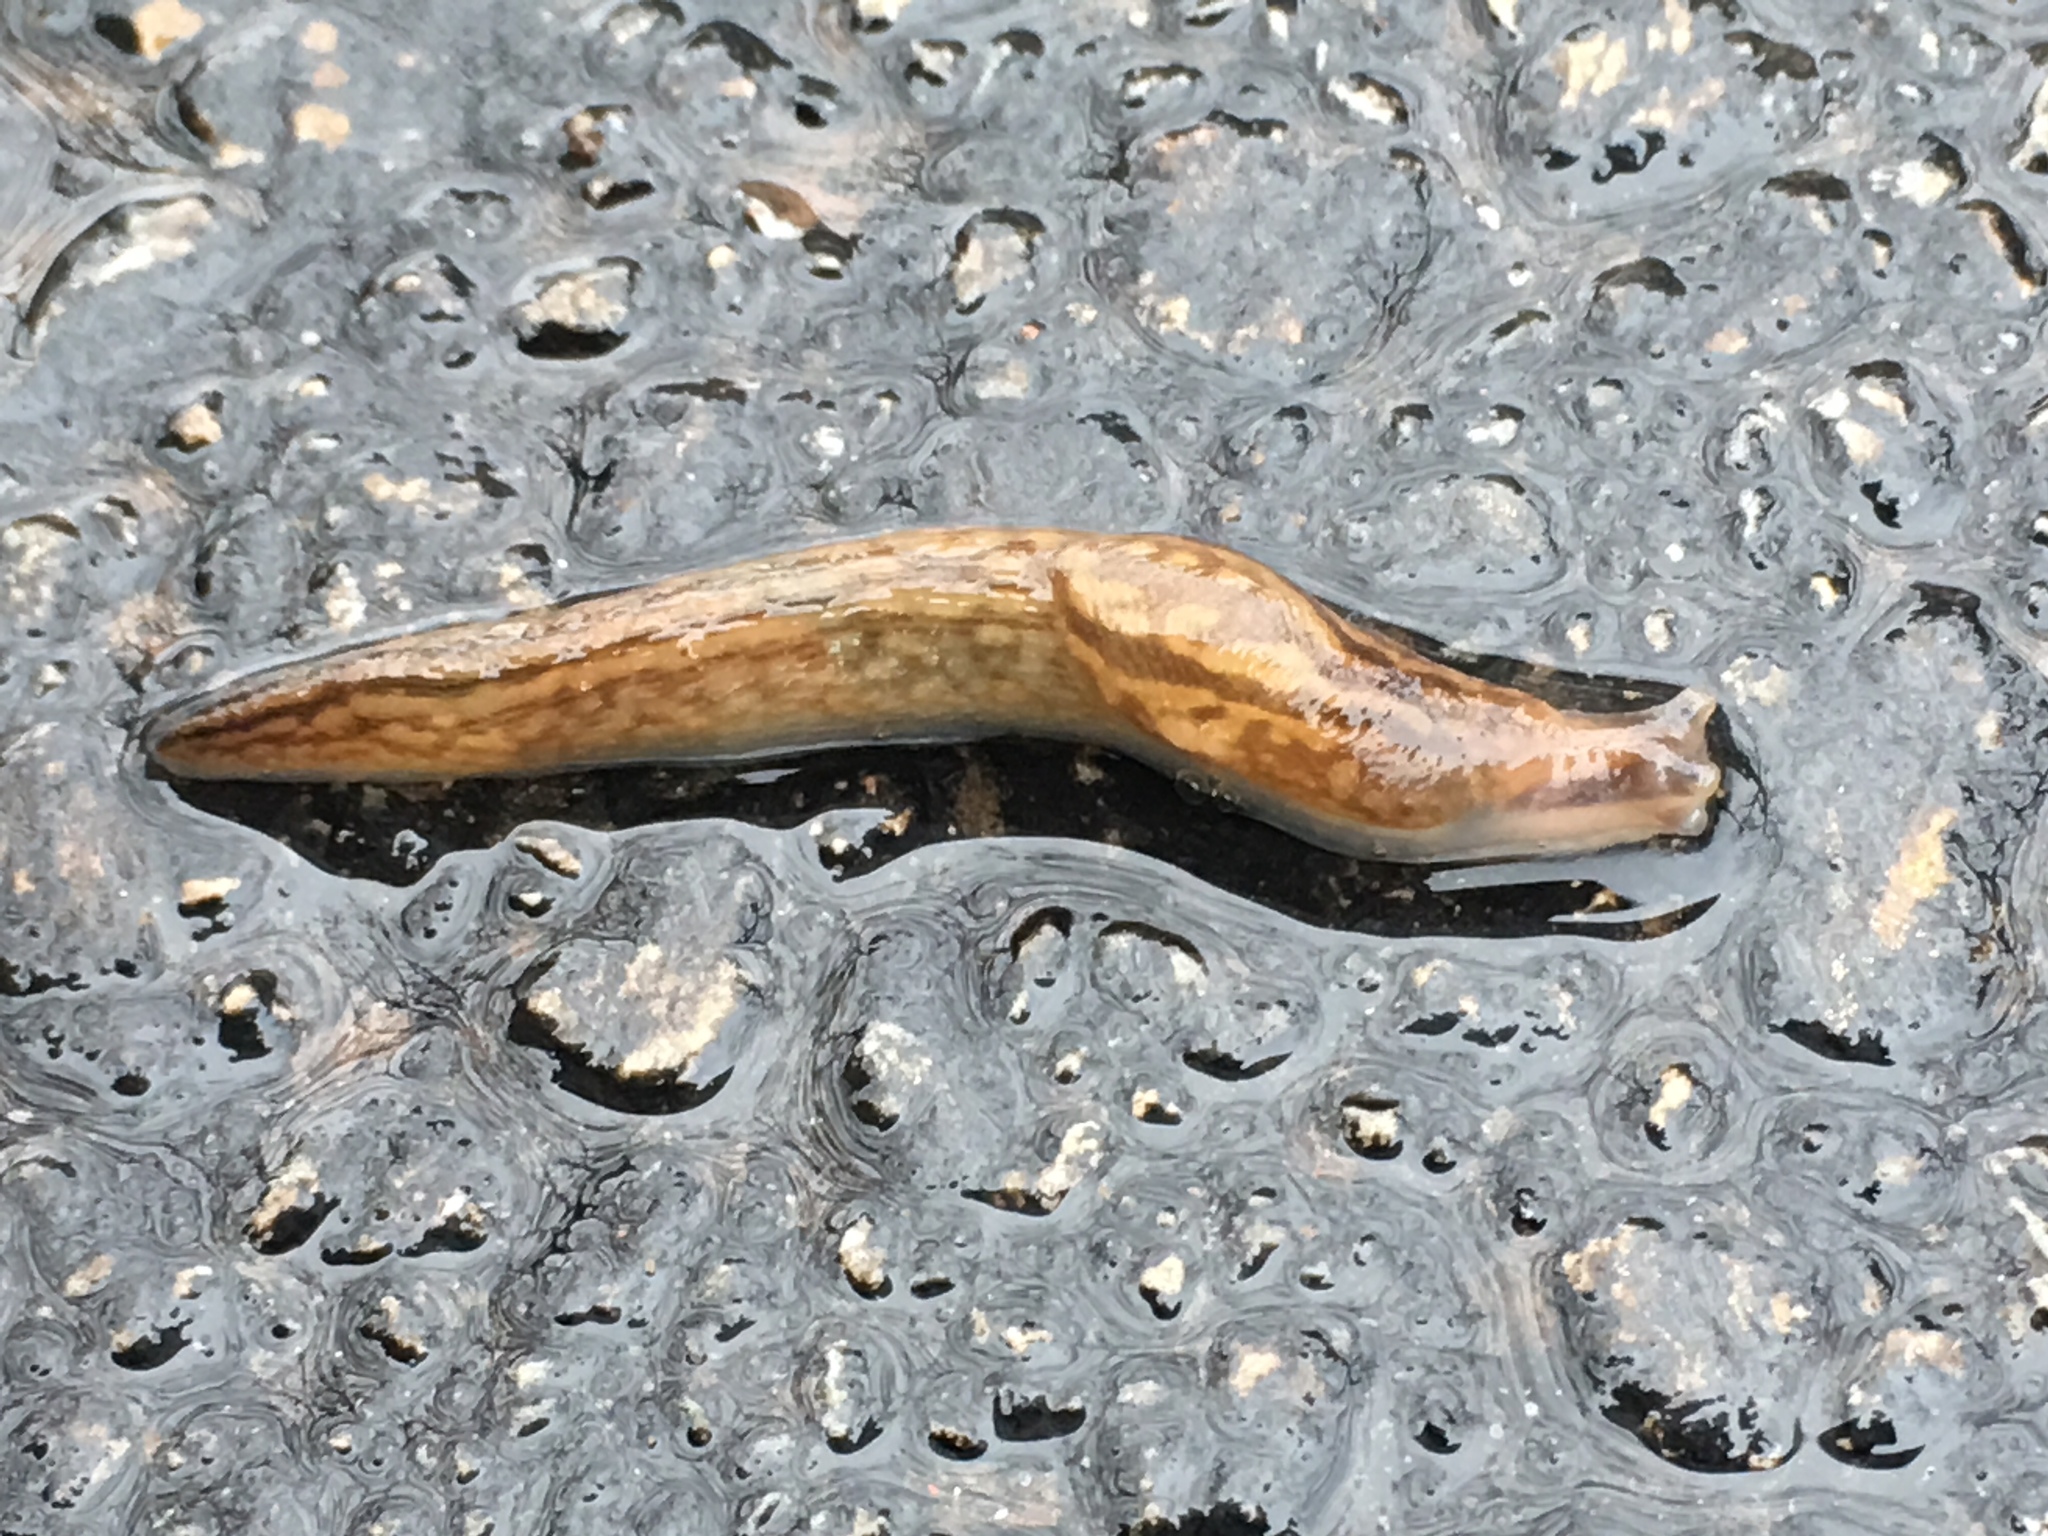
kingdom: Animalia
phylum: Mollusca
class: Gastropoda
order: Stylommatophora
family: Limacidae
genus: Ambigolimax
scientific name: Ambigolimax
